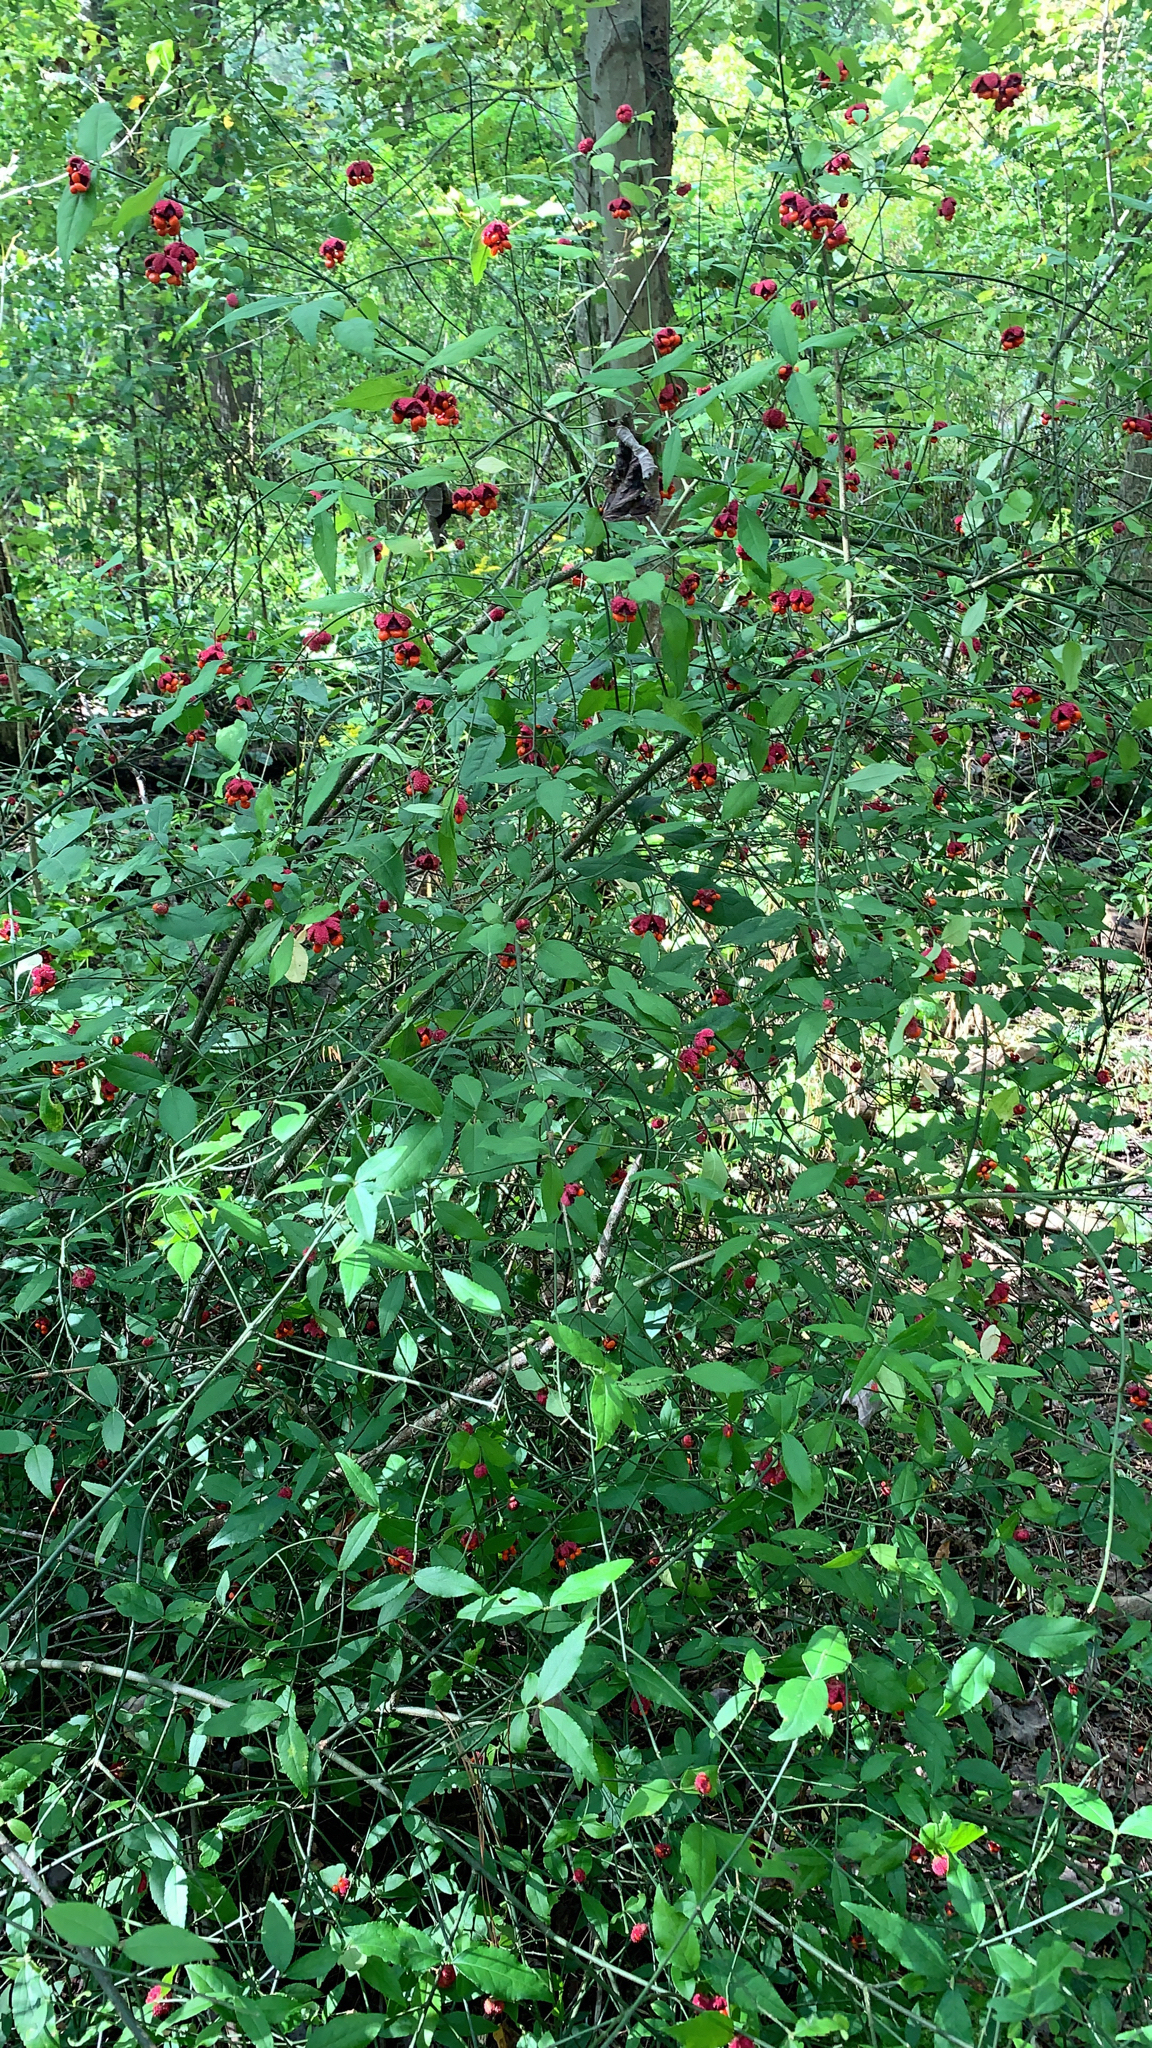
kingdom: Plantae
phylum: Tracheophyta
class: Magnoliopsida
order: Celastrales
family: Celastraceae
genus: Euonymus
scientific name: Euonymus americanus
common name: Bursting-heart
